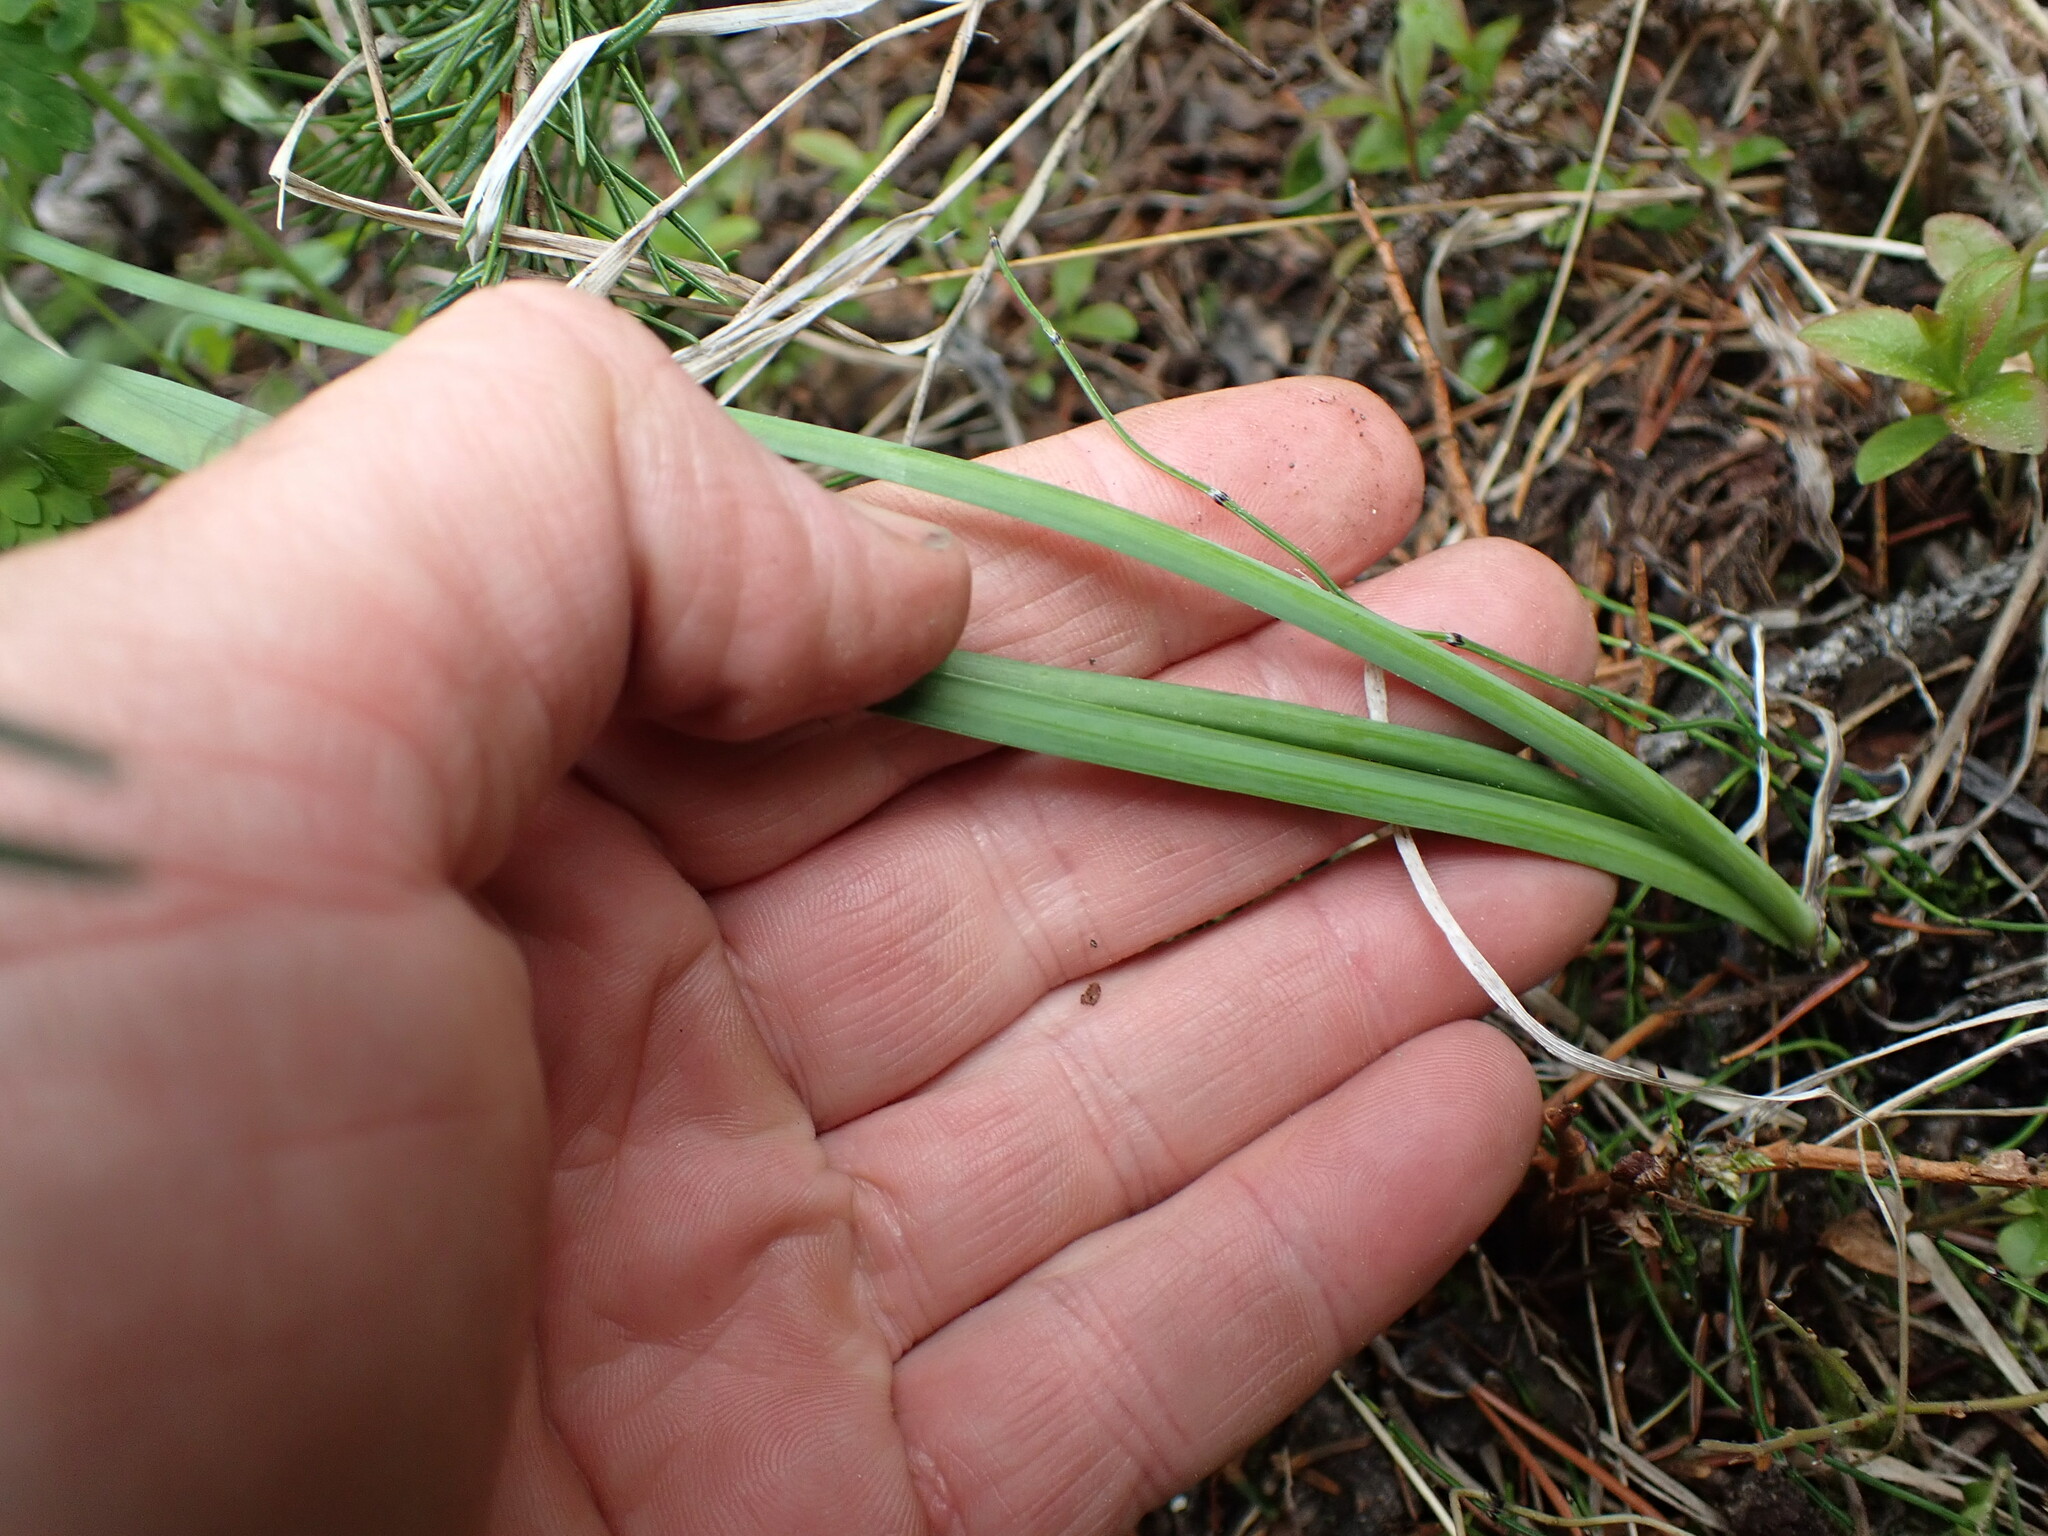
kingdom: Plantae
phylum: Tracheophyta
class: Liliopsida
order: Asparagales
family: Amaryllidaceae
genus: Allium
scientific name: Allium cernuum
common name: Nodding onion
